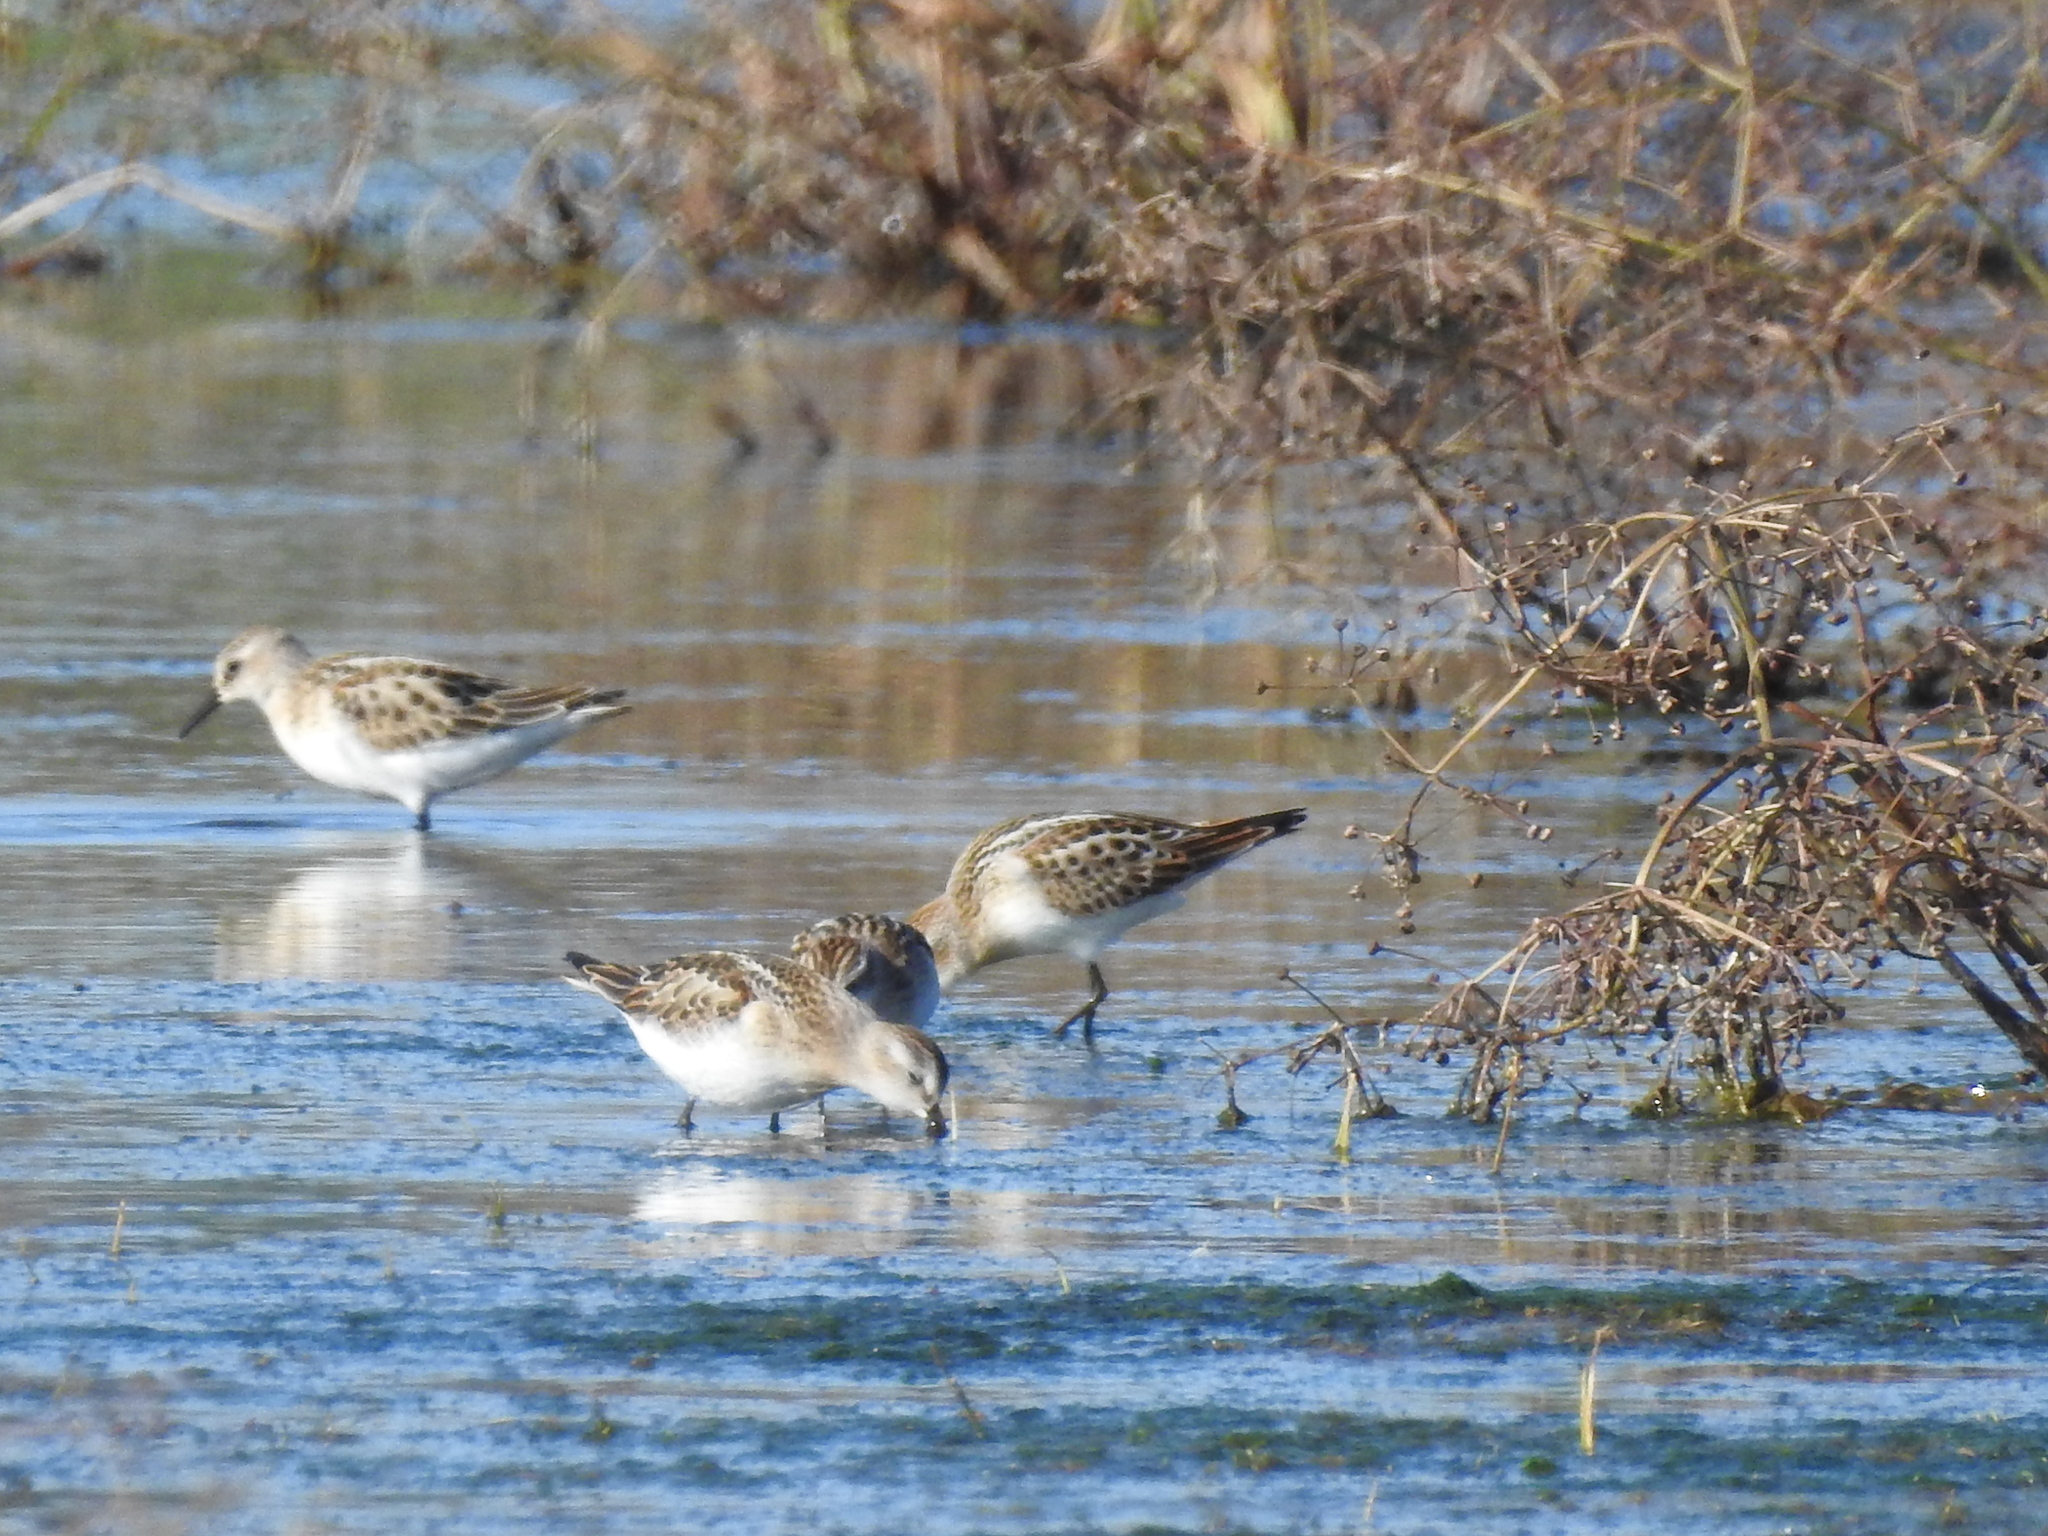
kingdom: Animalia
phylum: Chordata
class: Aves
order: Charadriiformes
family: Scolopacidae
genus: Calidris
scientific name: Calidris minuta
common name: Little stint
